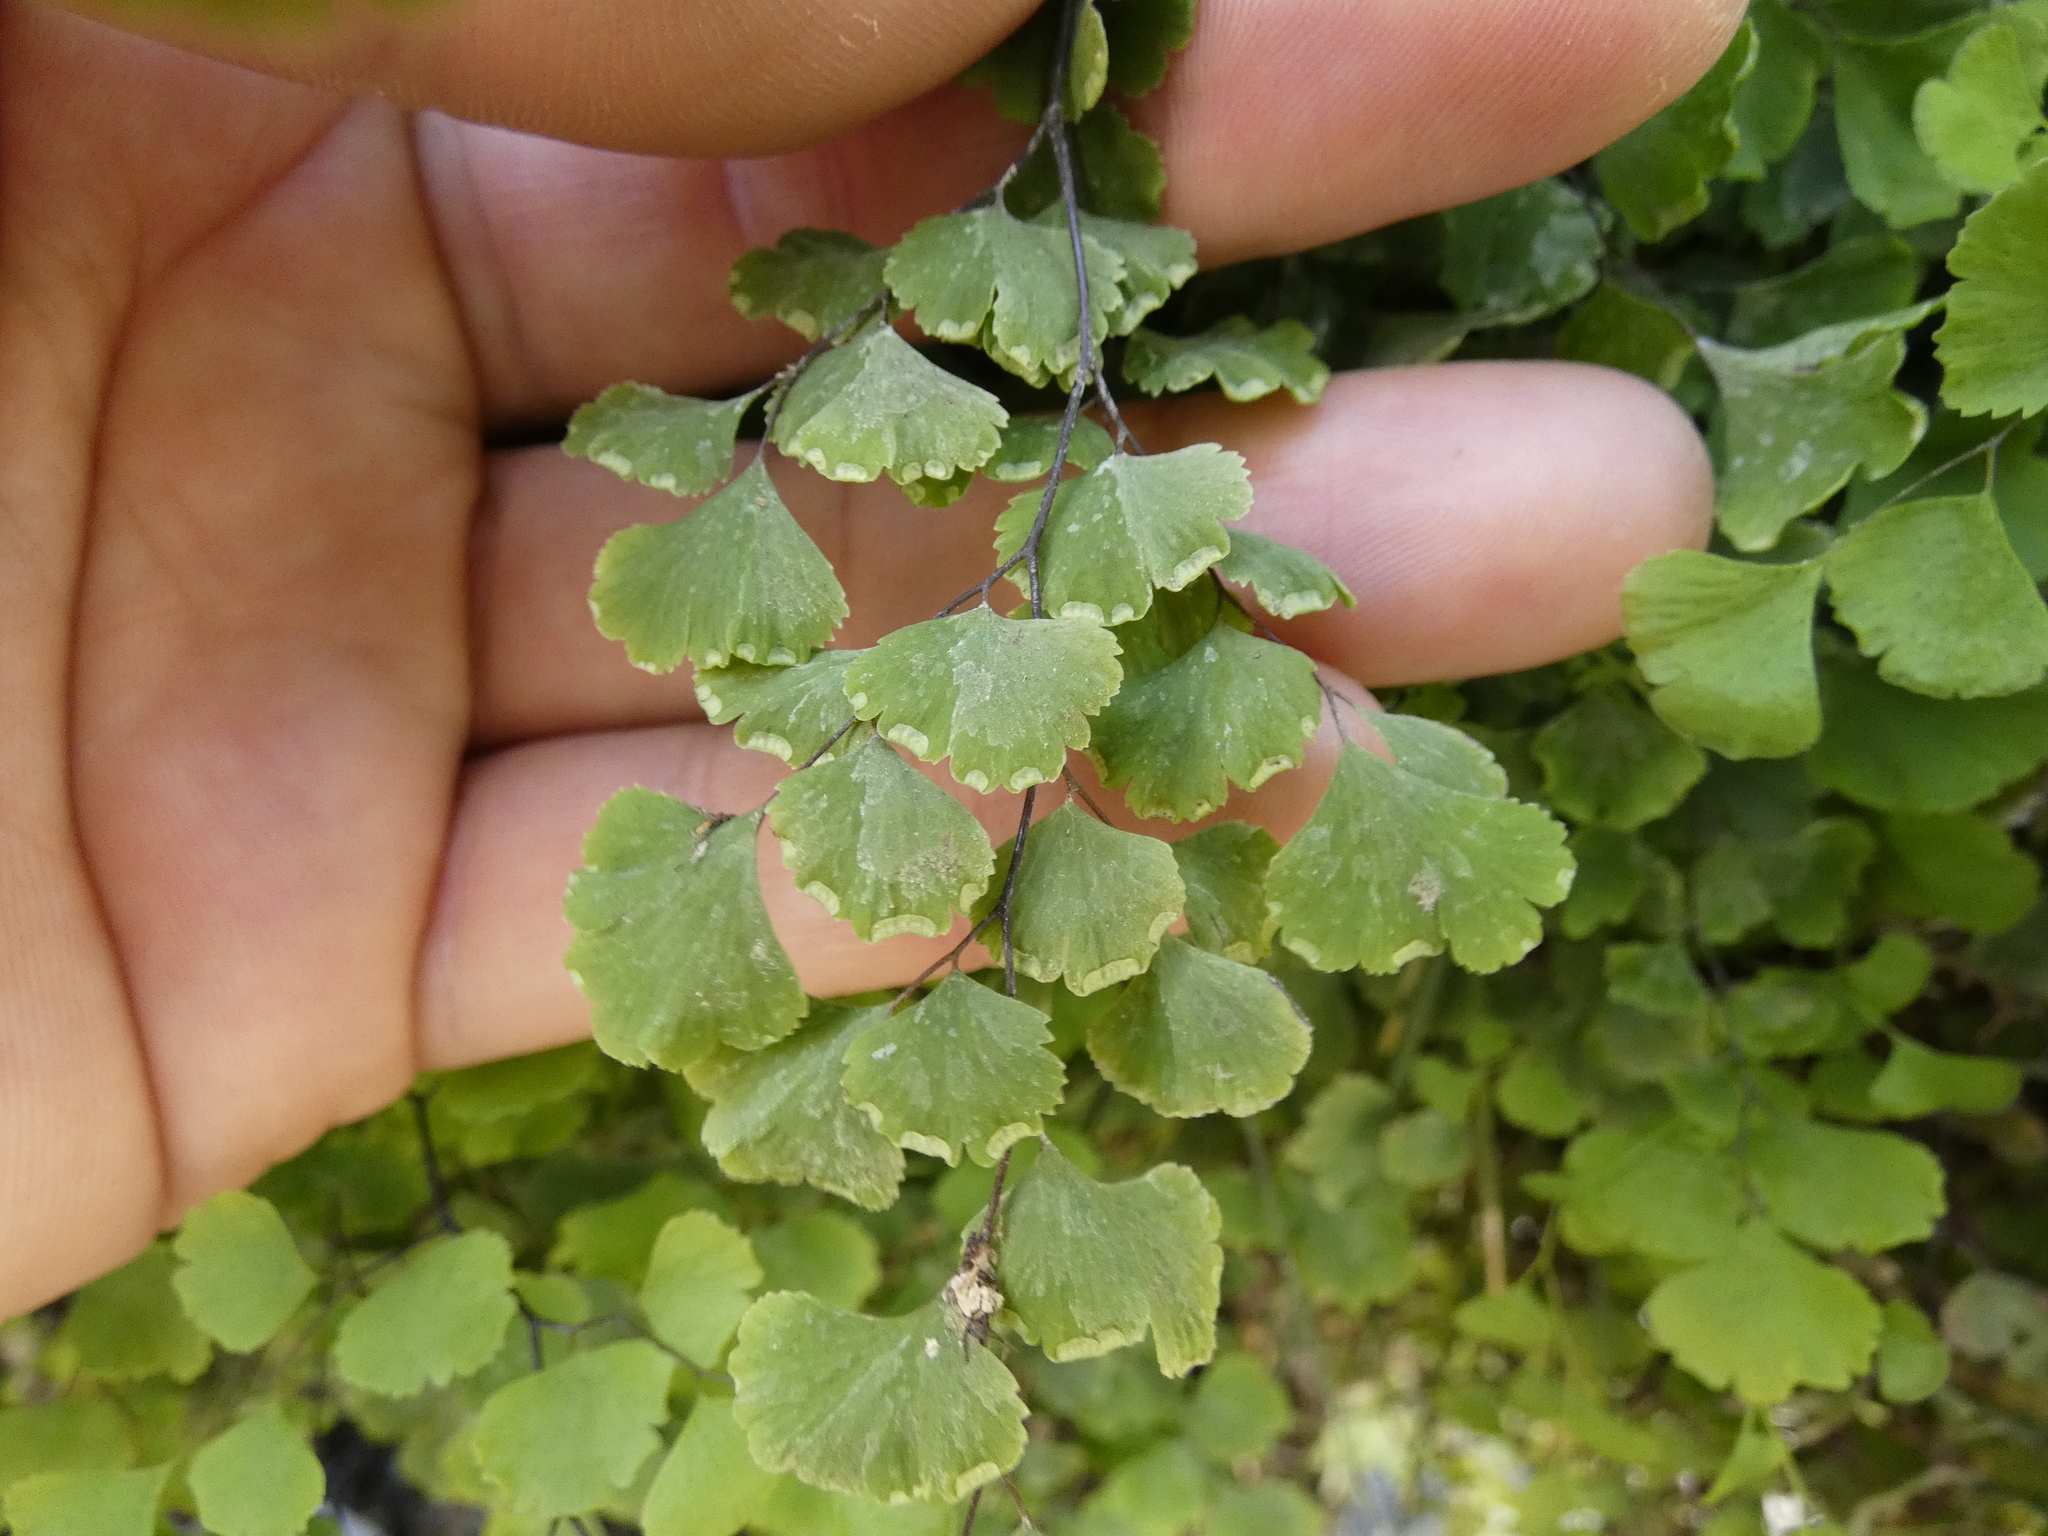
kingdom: Plantae
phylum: Tracheophyta
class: Polypodiopsida
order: Polypodiales
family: Pteridaceae
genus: Adiantum
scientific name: Adiantum capillus-veneris
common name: Maidenhair fern
